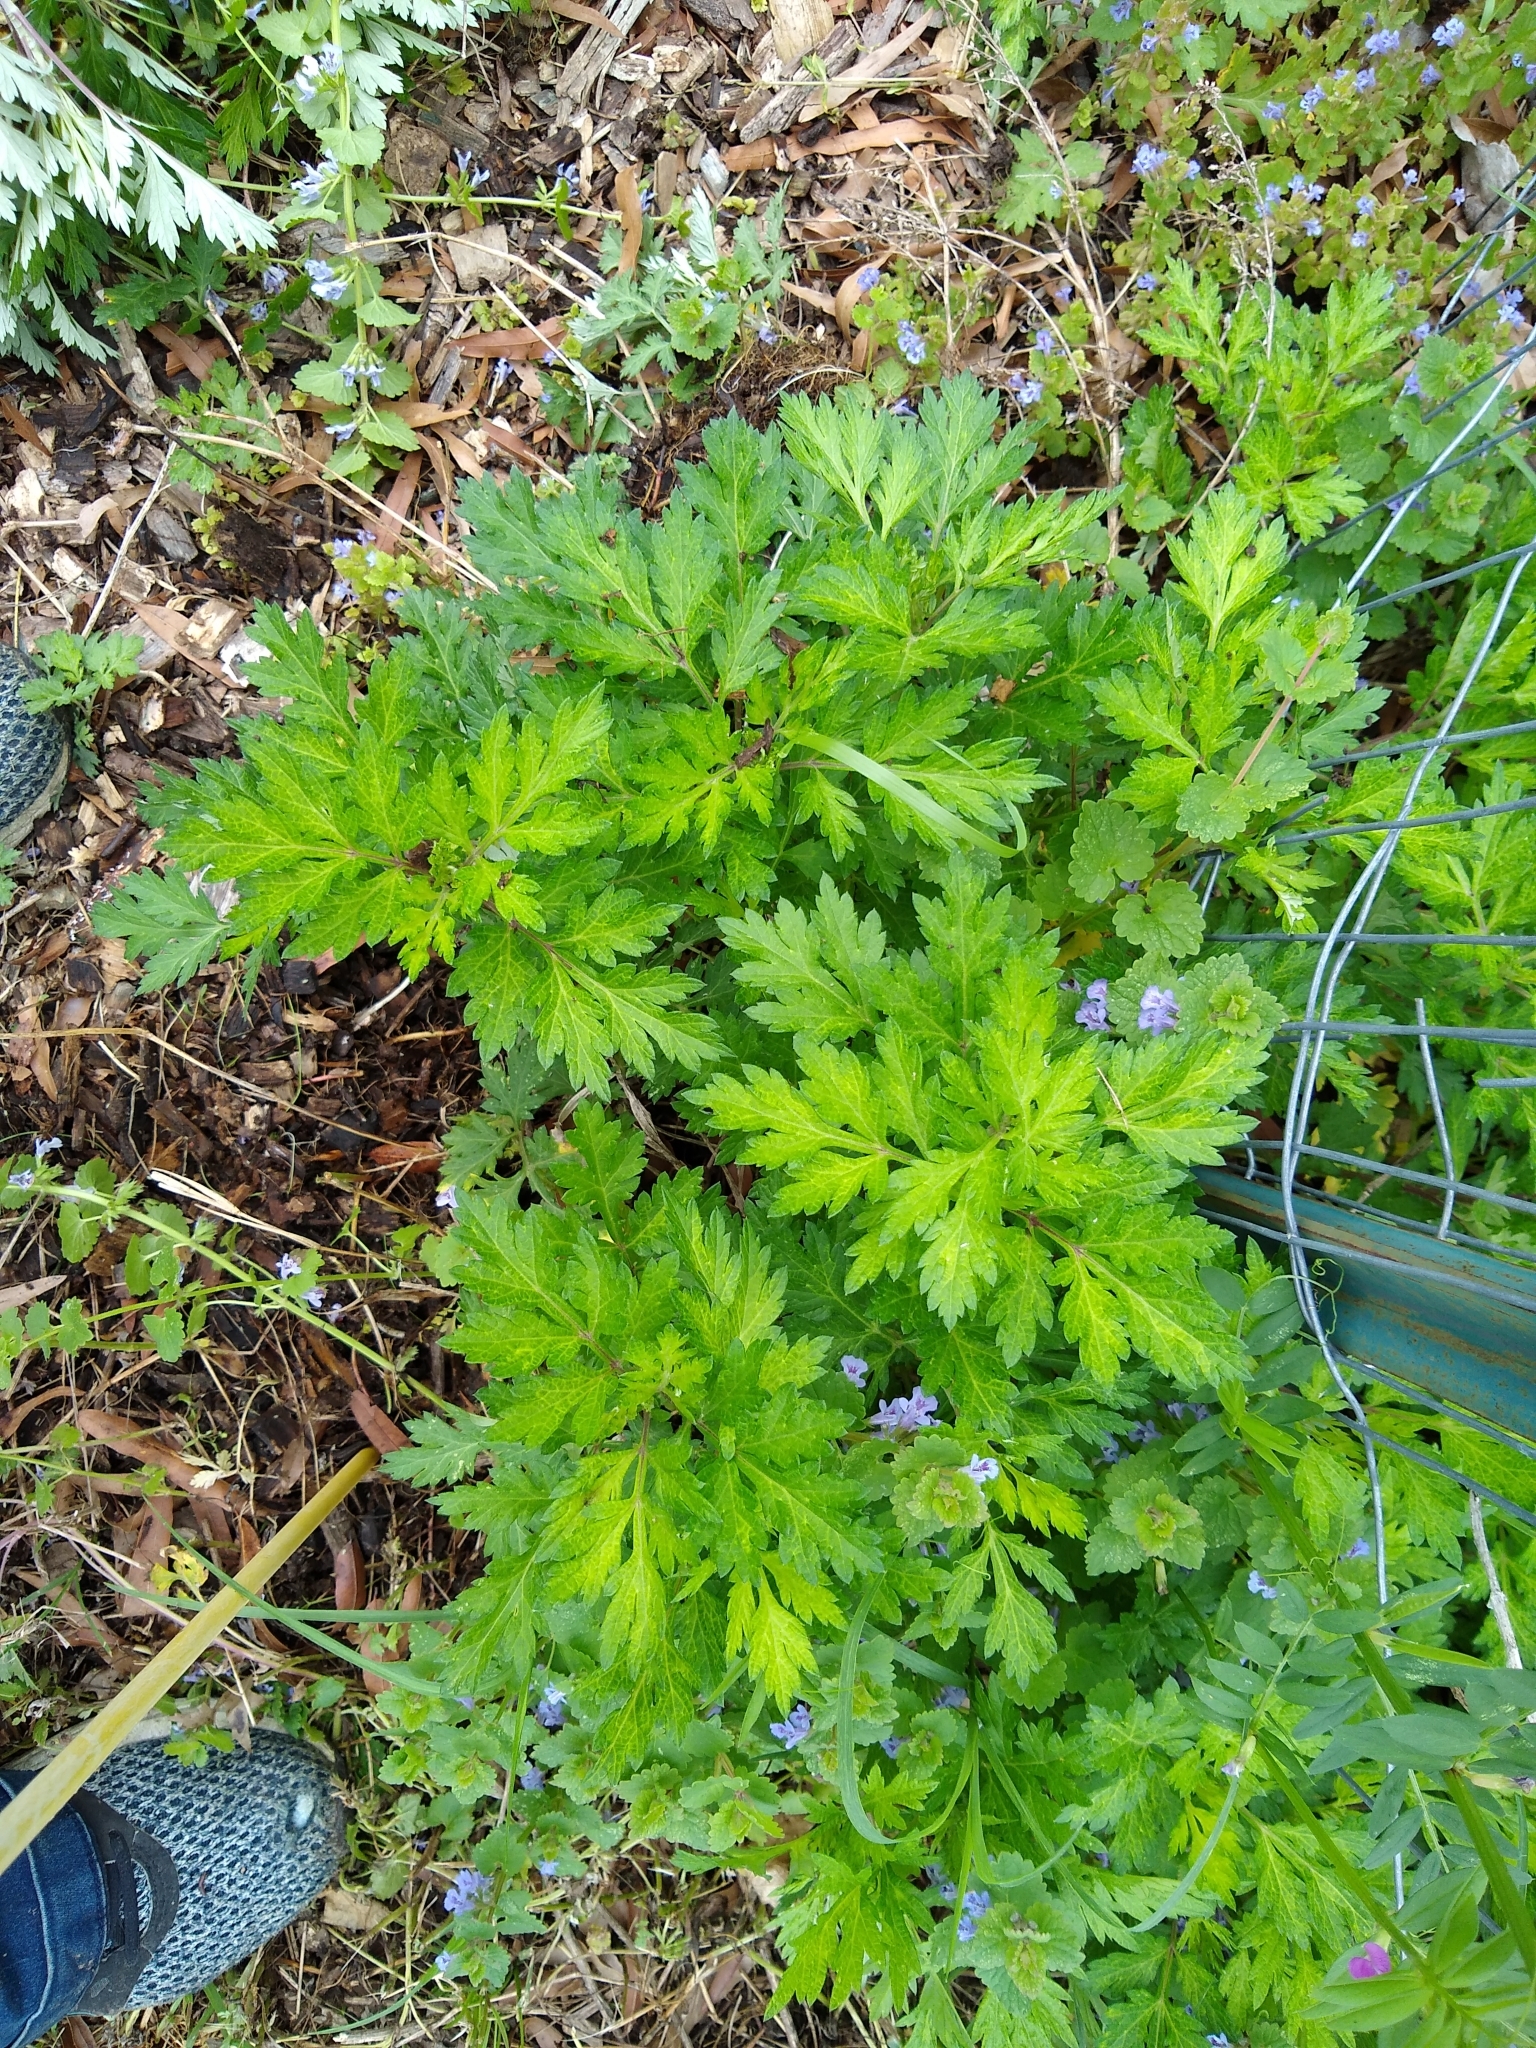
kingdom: Plantae
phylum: Tracheophyta
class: Magnoliopsida
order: Lamiales
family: Lamiaceae
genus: Glechoma
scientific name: Glechoma hederacea
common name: Ground ivy
